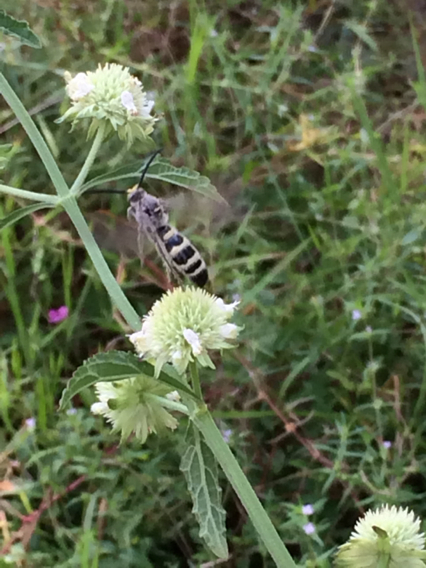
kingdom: Animalia
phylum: Arthropoda
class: Insecta
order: Hymenoptera
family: Scoliidae
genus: Dielis
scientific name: Dielis
